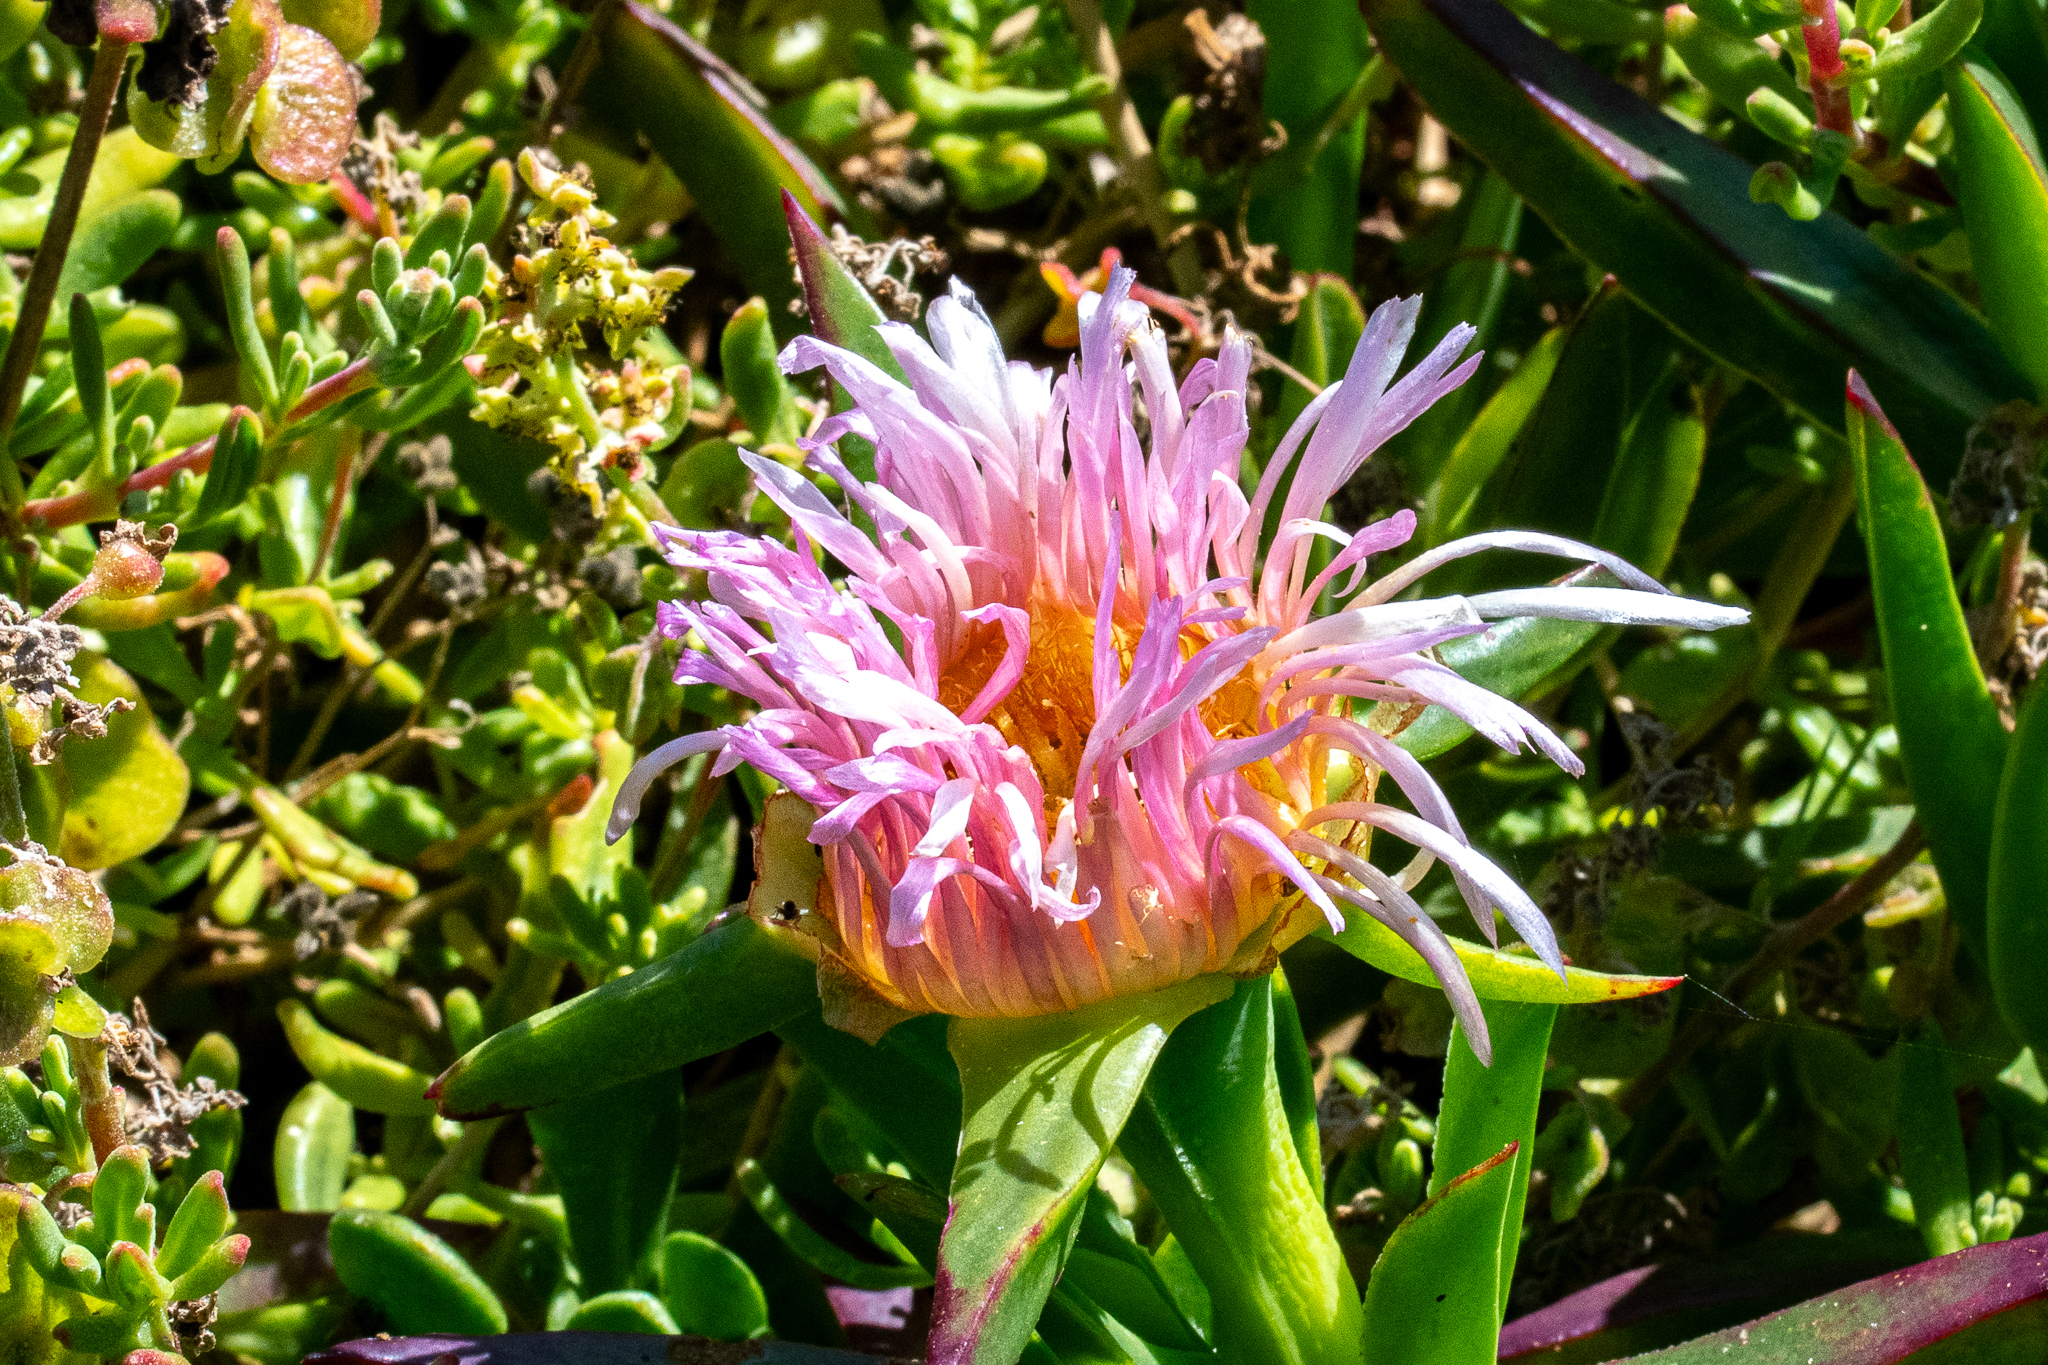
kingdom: Plantae
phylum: Tracheophyta
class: Magnoliopsida
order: Caryophyllales
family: Aizoaceae
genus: Carpobrotus
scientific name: Carpobrotus edulis
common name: Hottentot-fig
